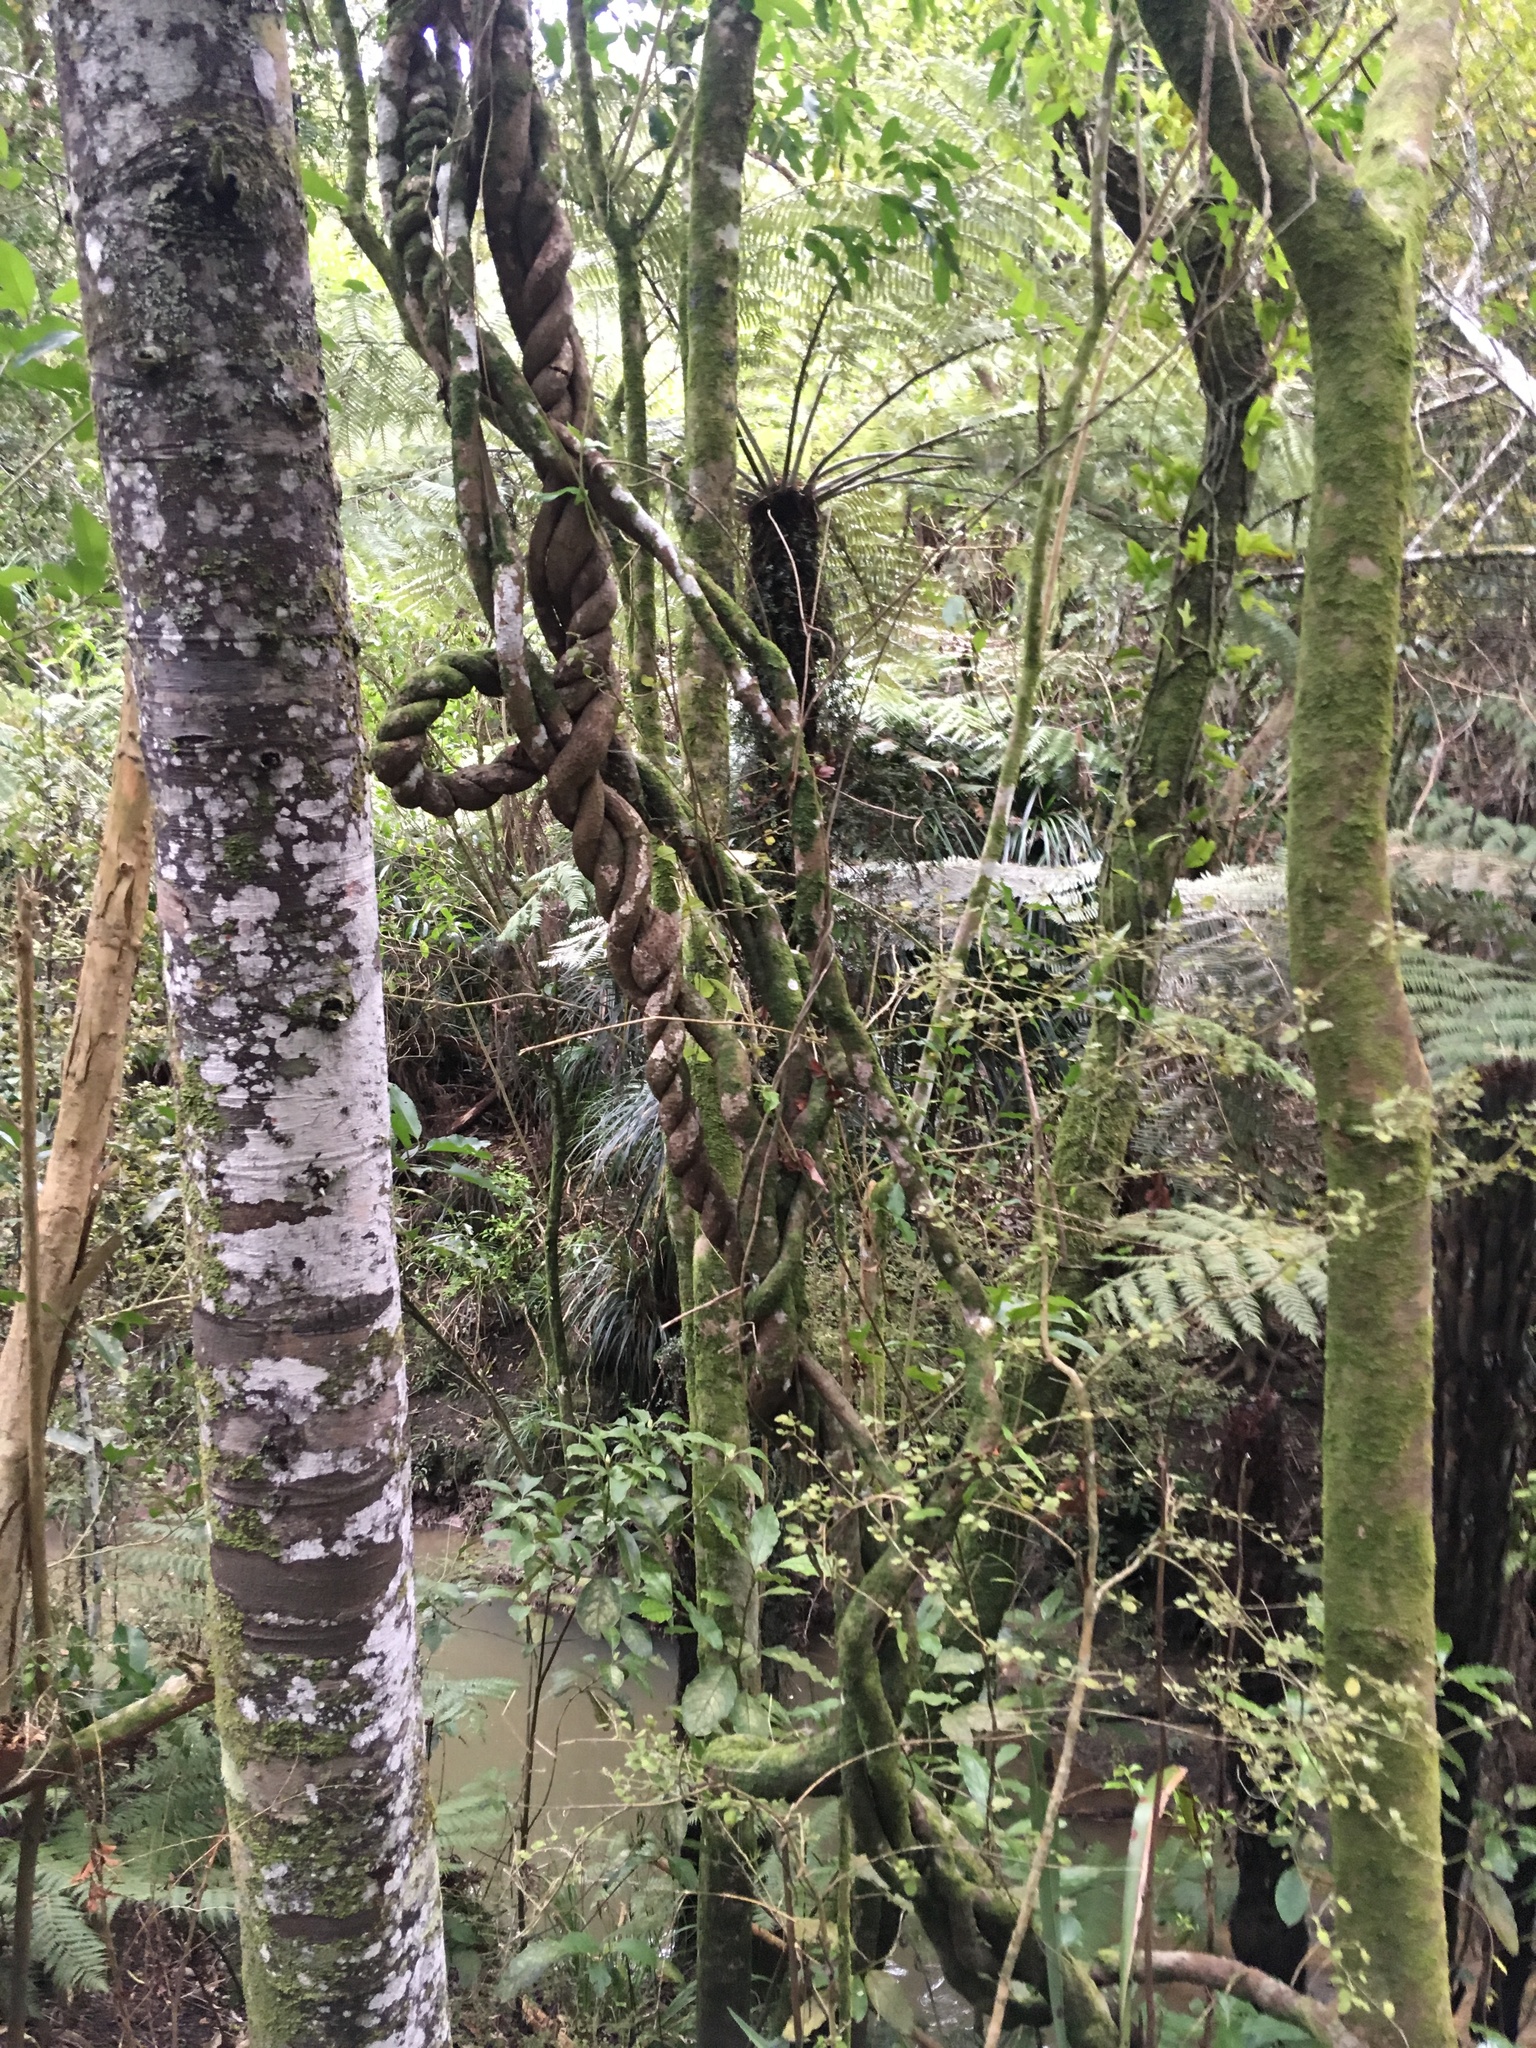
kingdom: Plantae
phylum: Tracheophyta
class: Pinopsida
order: Pinales
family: Phyllocladaceae
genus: Phyllocladus
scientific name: Phyllocladus trichomanoides
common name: Celery pine
